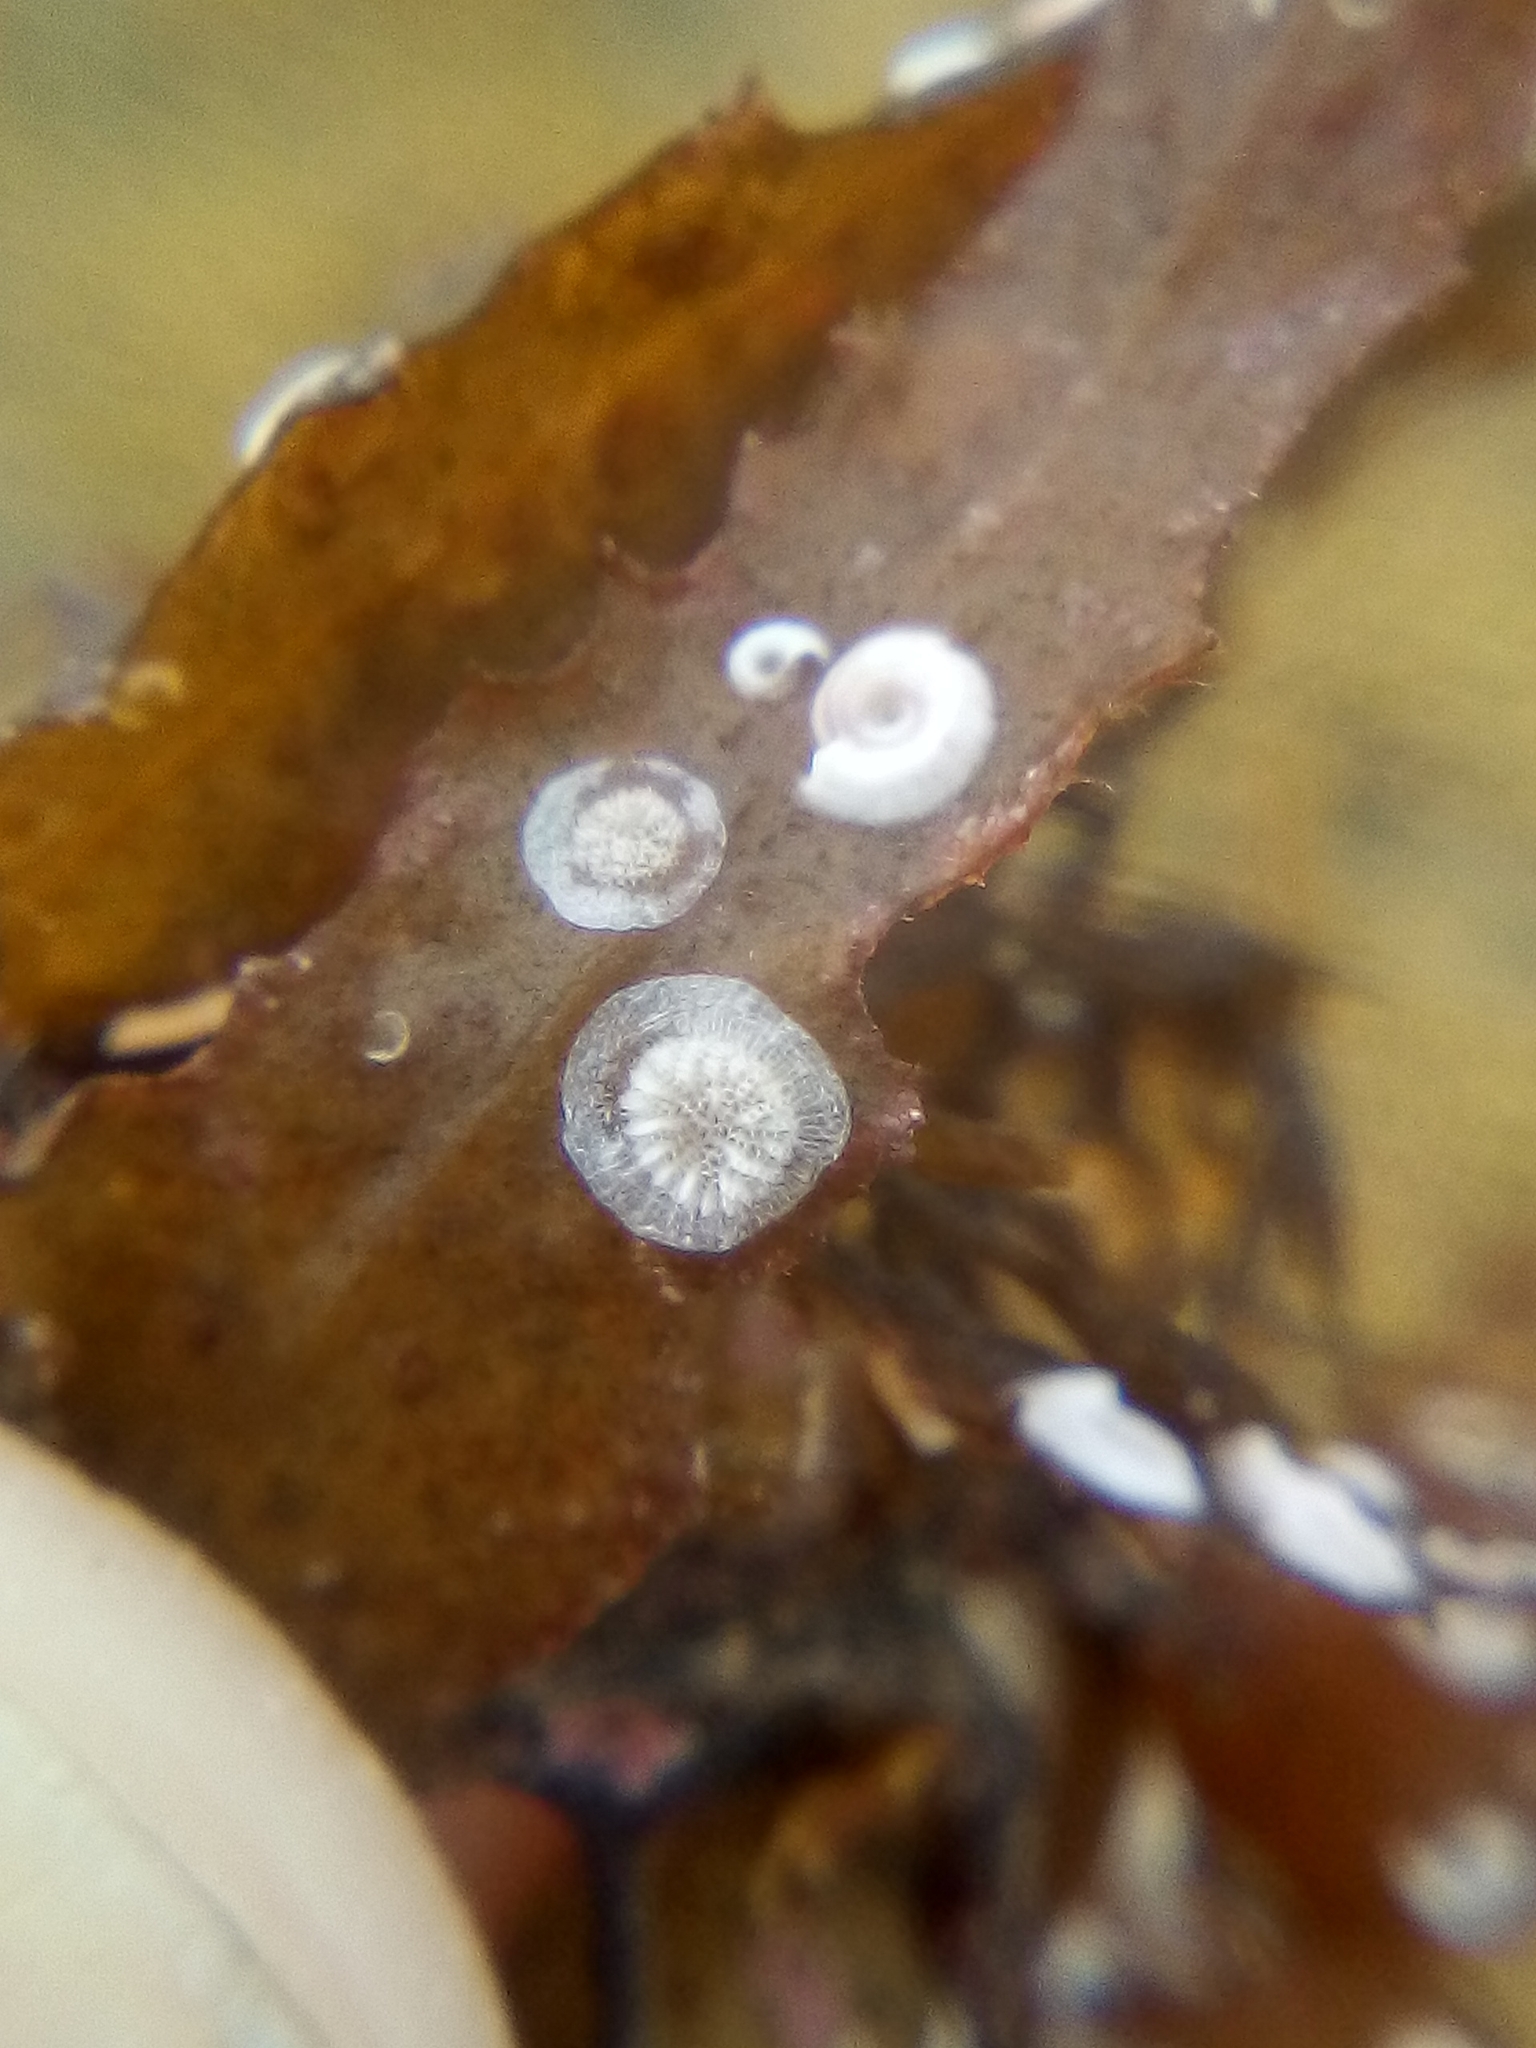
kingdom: Animalia
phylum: Bryozoa
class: Stenolaemata
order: Cyclostomatida
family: Lichenoporidae
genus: Disporella
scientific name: Disporella novaehollandiae
